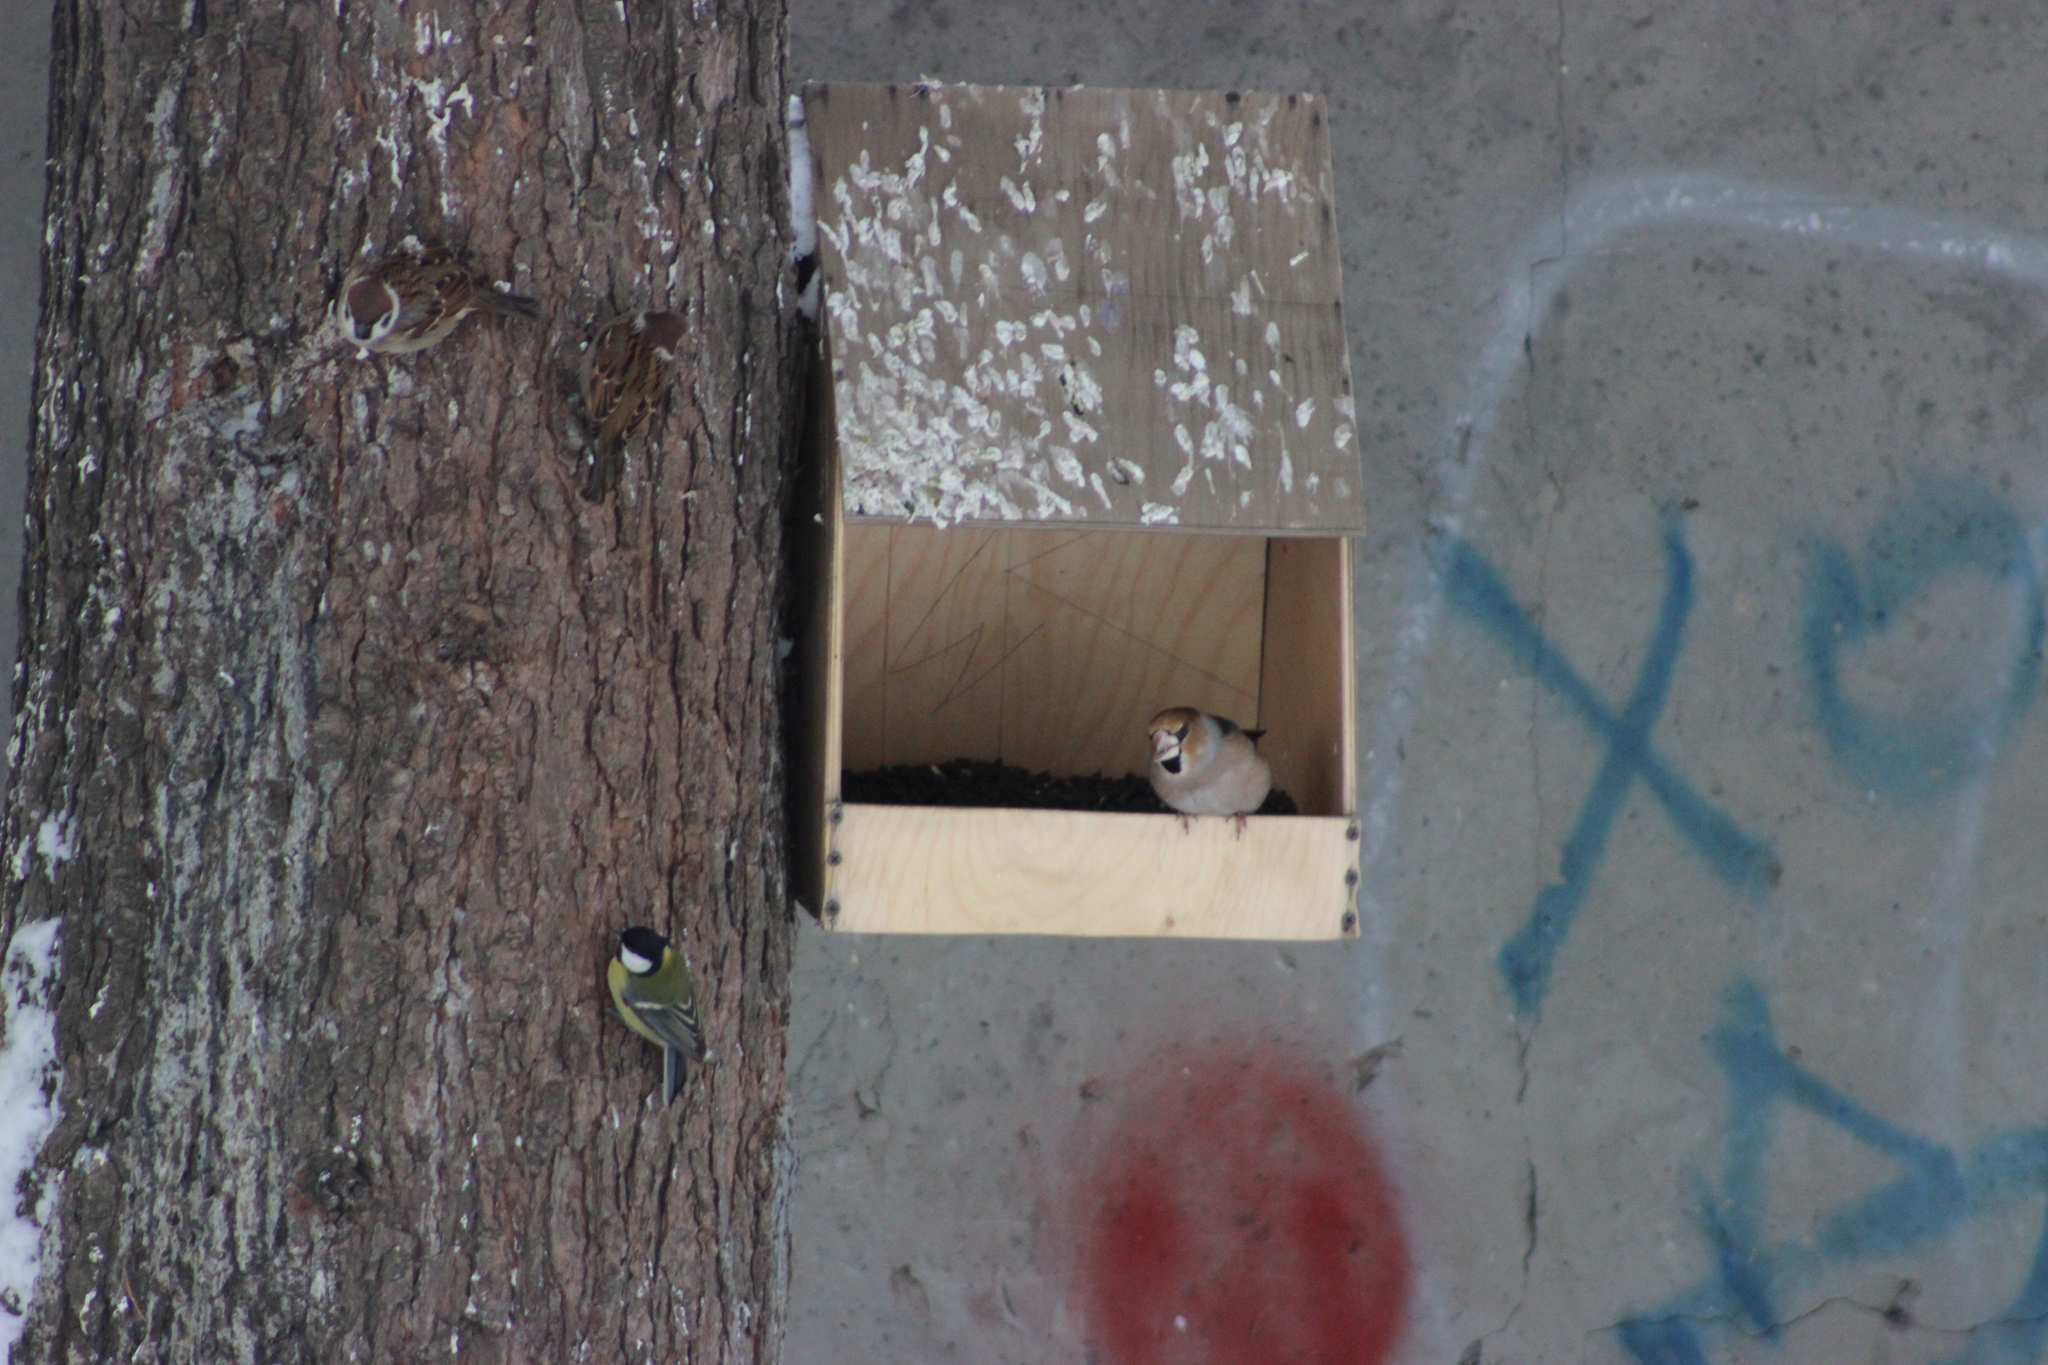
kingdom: Animalia
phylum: Chordata
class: Aves
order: Passeriformes
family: Fringillidae
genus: Coccothraustes
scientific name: Coccothraustes coccothraustes
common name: Hawfinch
